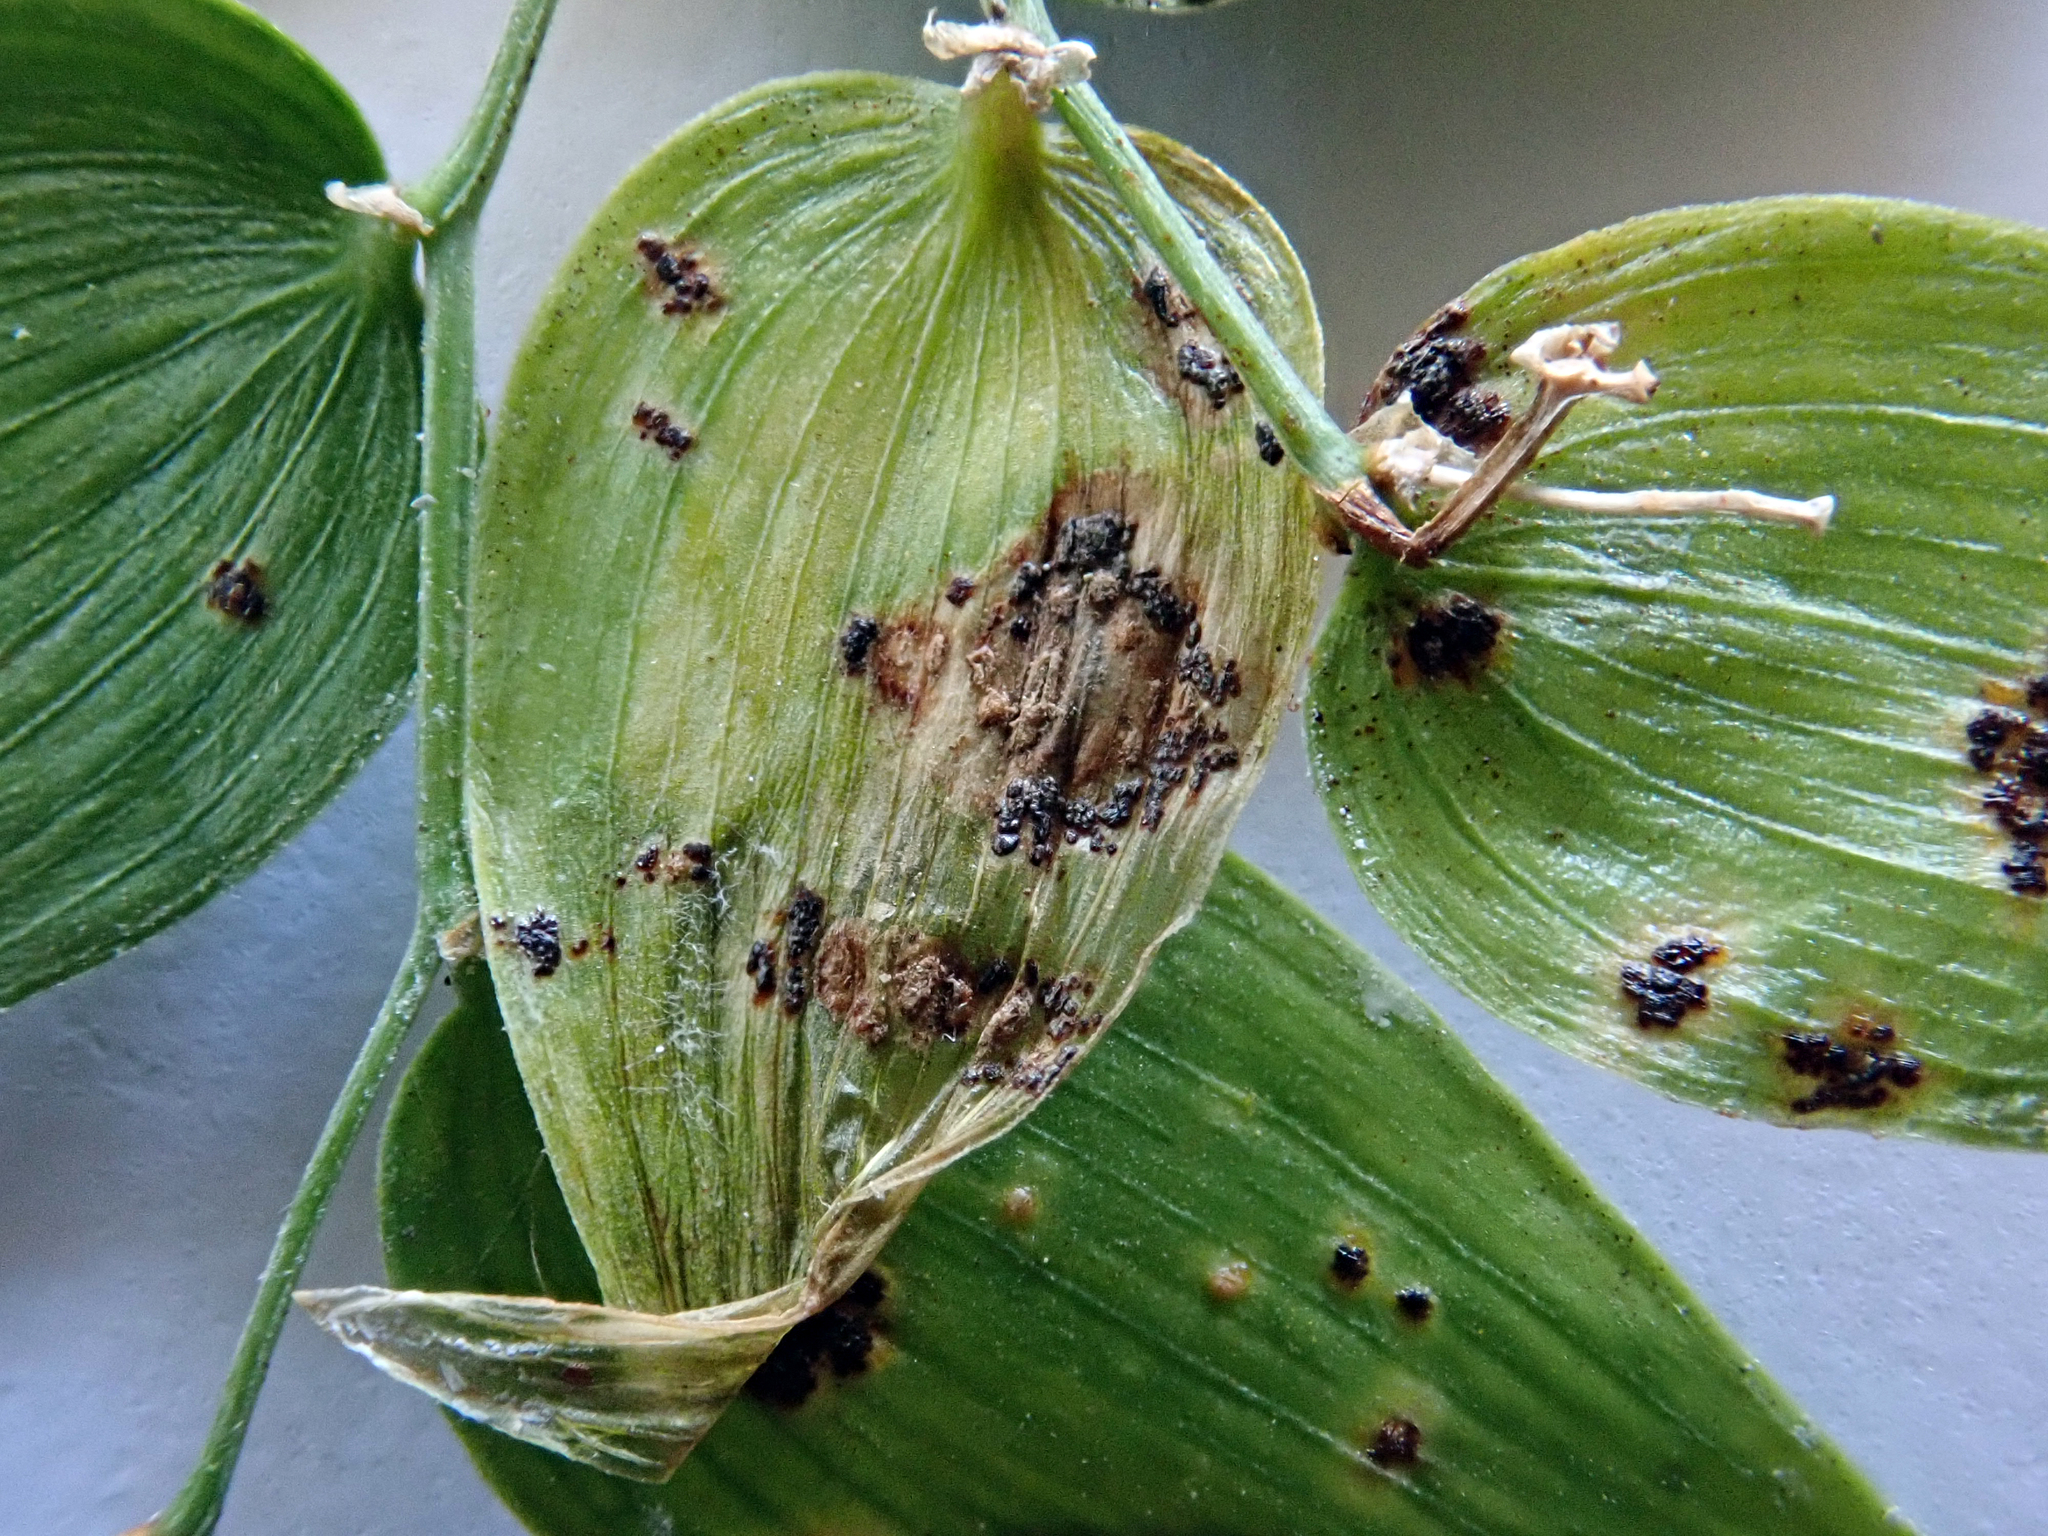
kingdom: Fungi
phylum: Basidiomycota
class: Pucciniomycetes
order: Pucciniales
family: Pucciniaceae
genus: Puccinia
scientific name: Puccinia myrsiphylli
